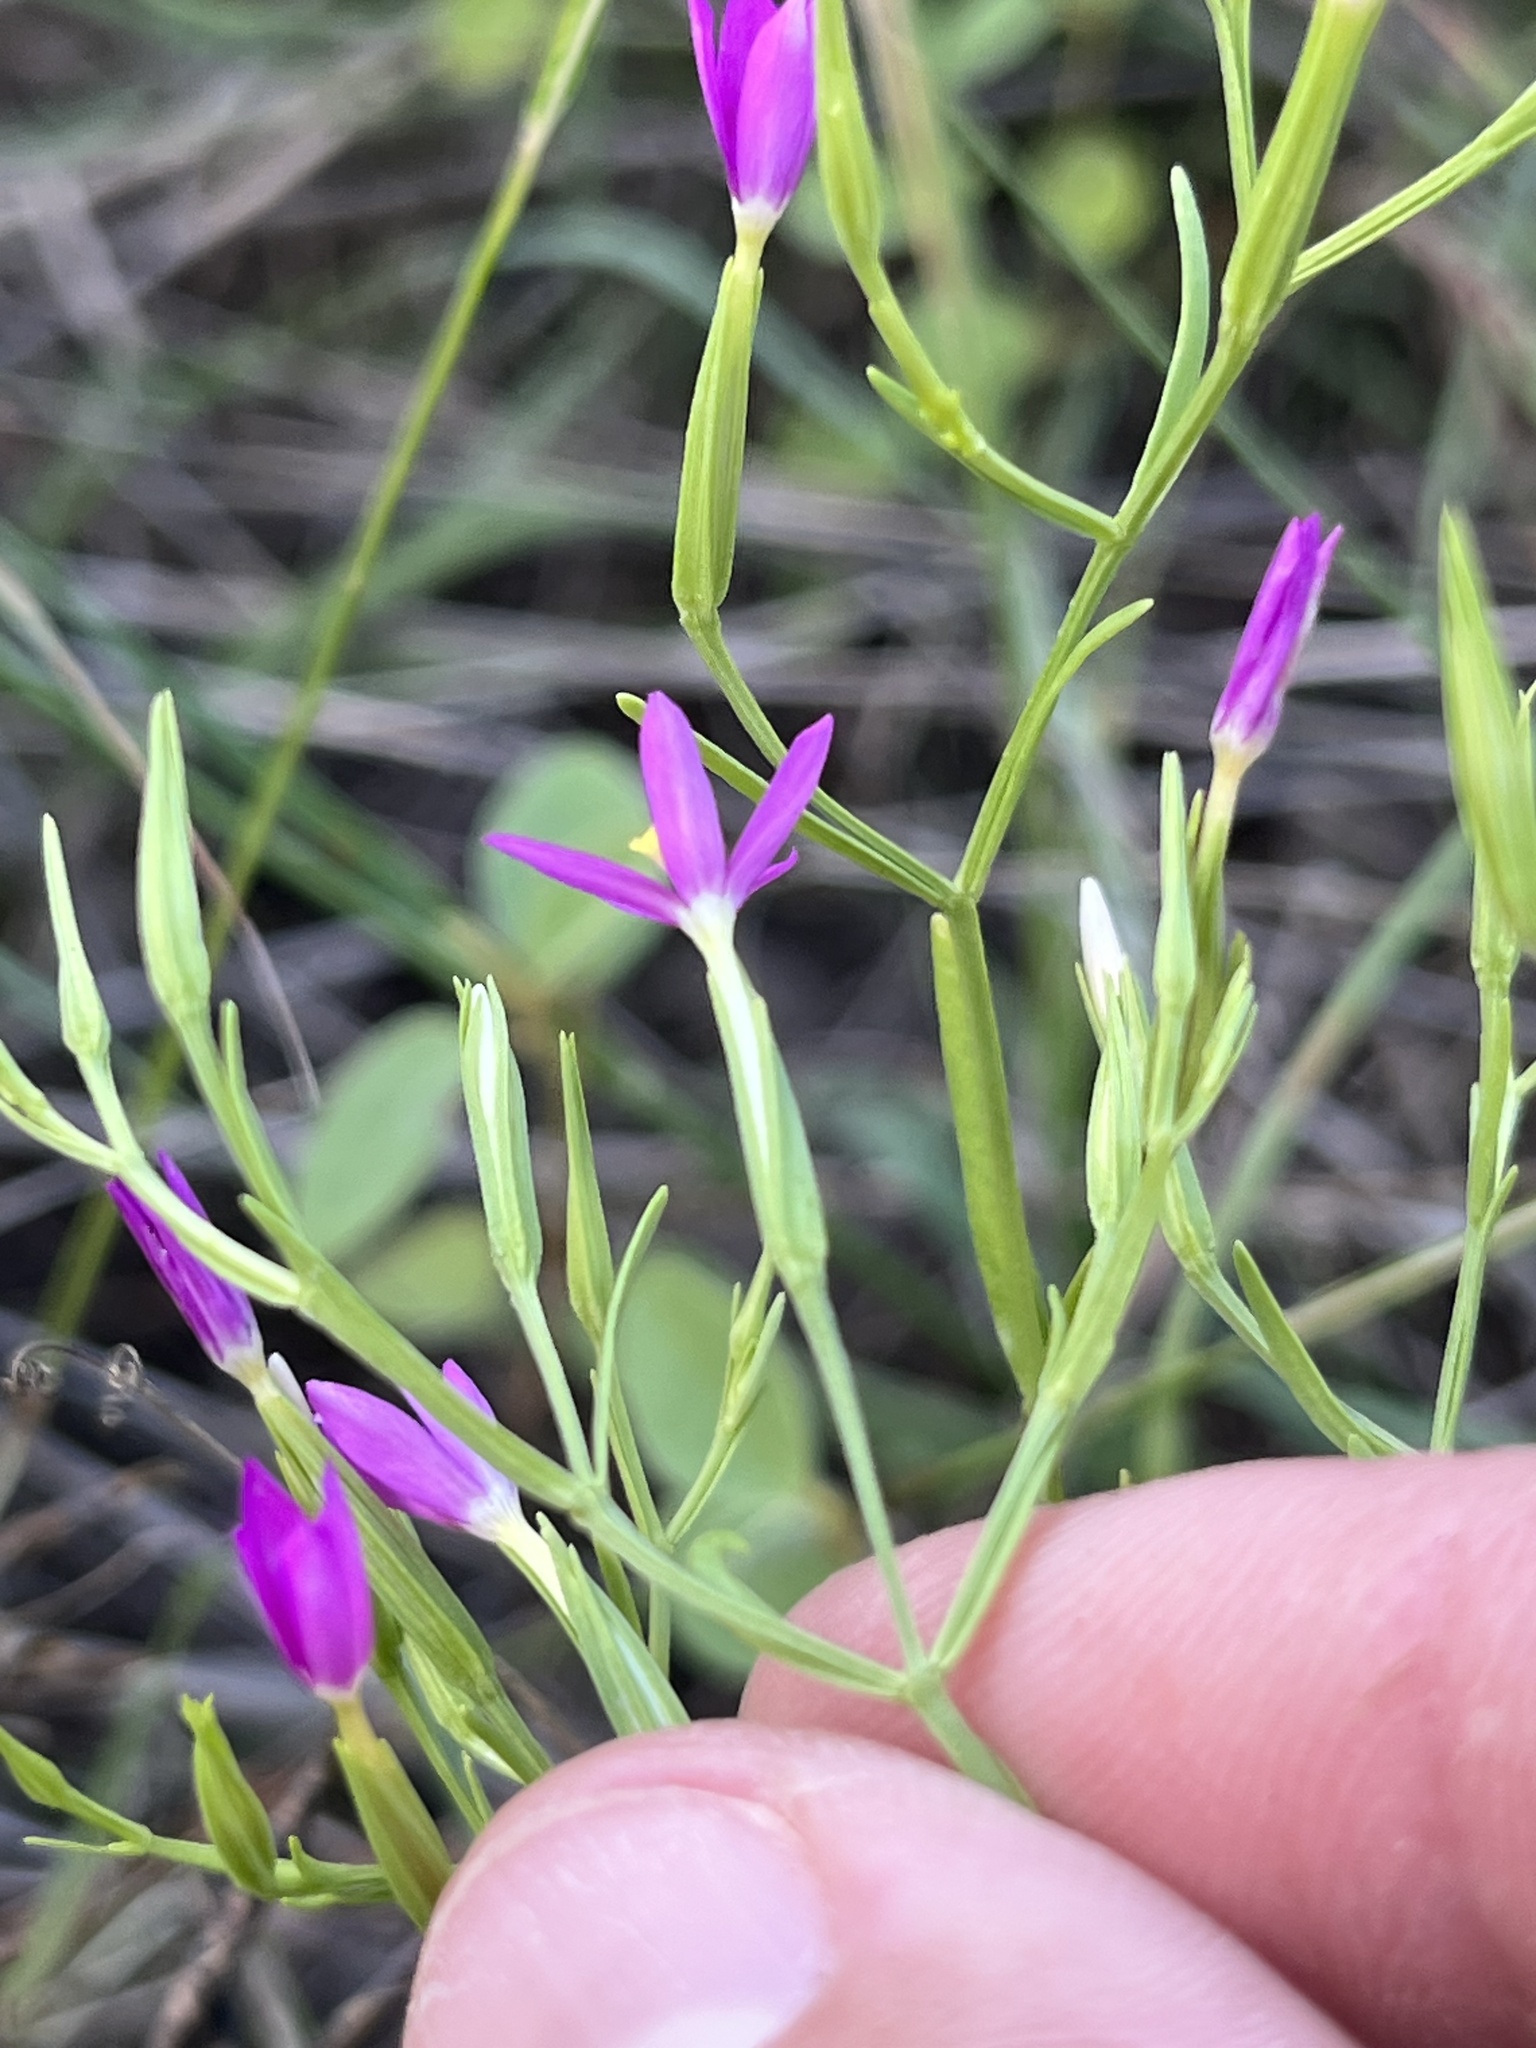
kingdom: Plantae
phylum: Tracheophyta
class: Magnoliopsida
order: Gentianales
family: Gentianaceae
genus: Zeltnera
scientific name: Zeltnera texensis
